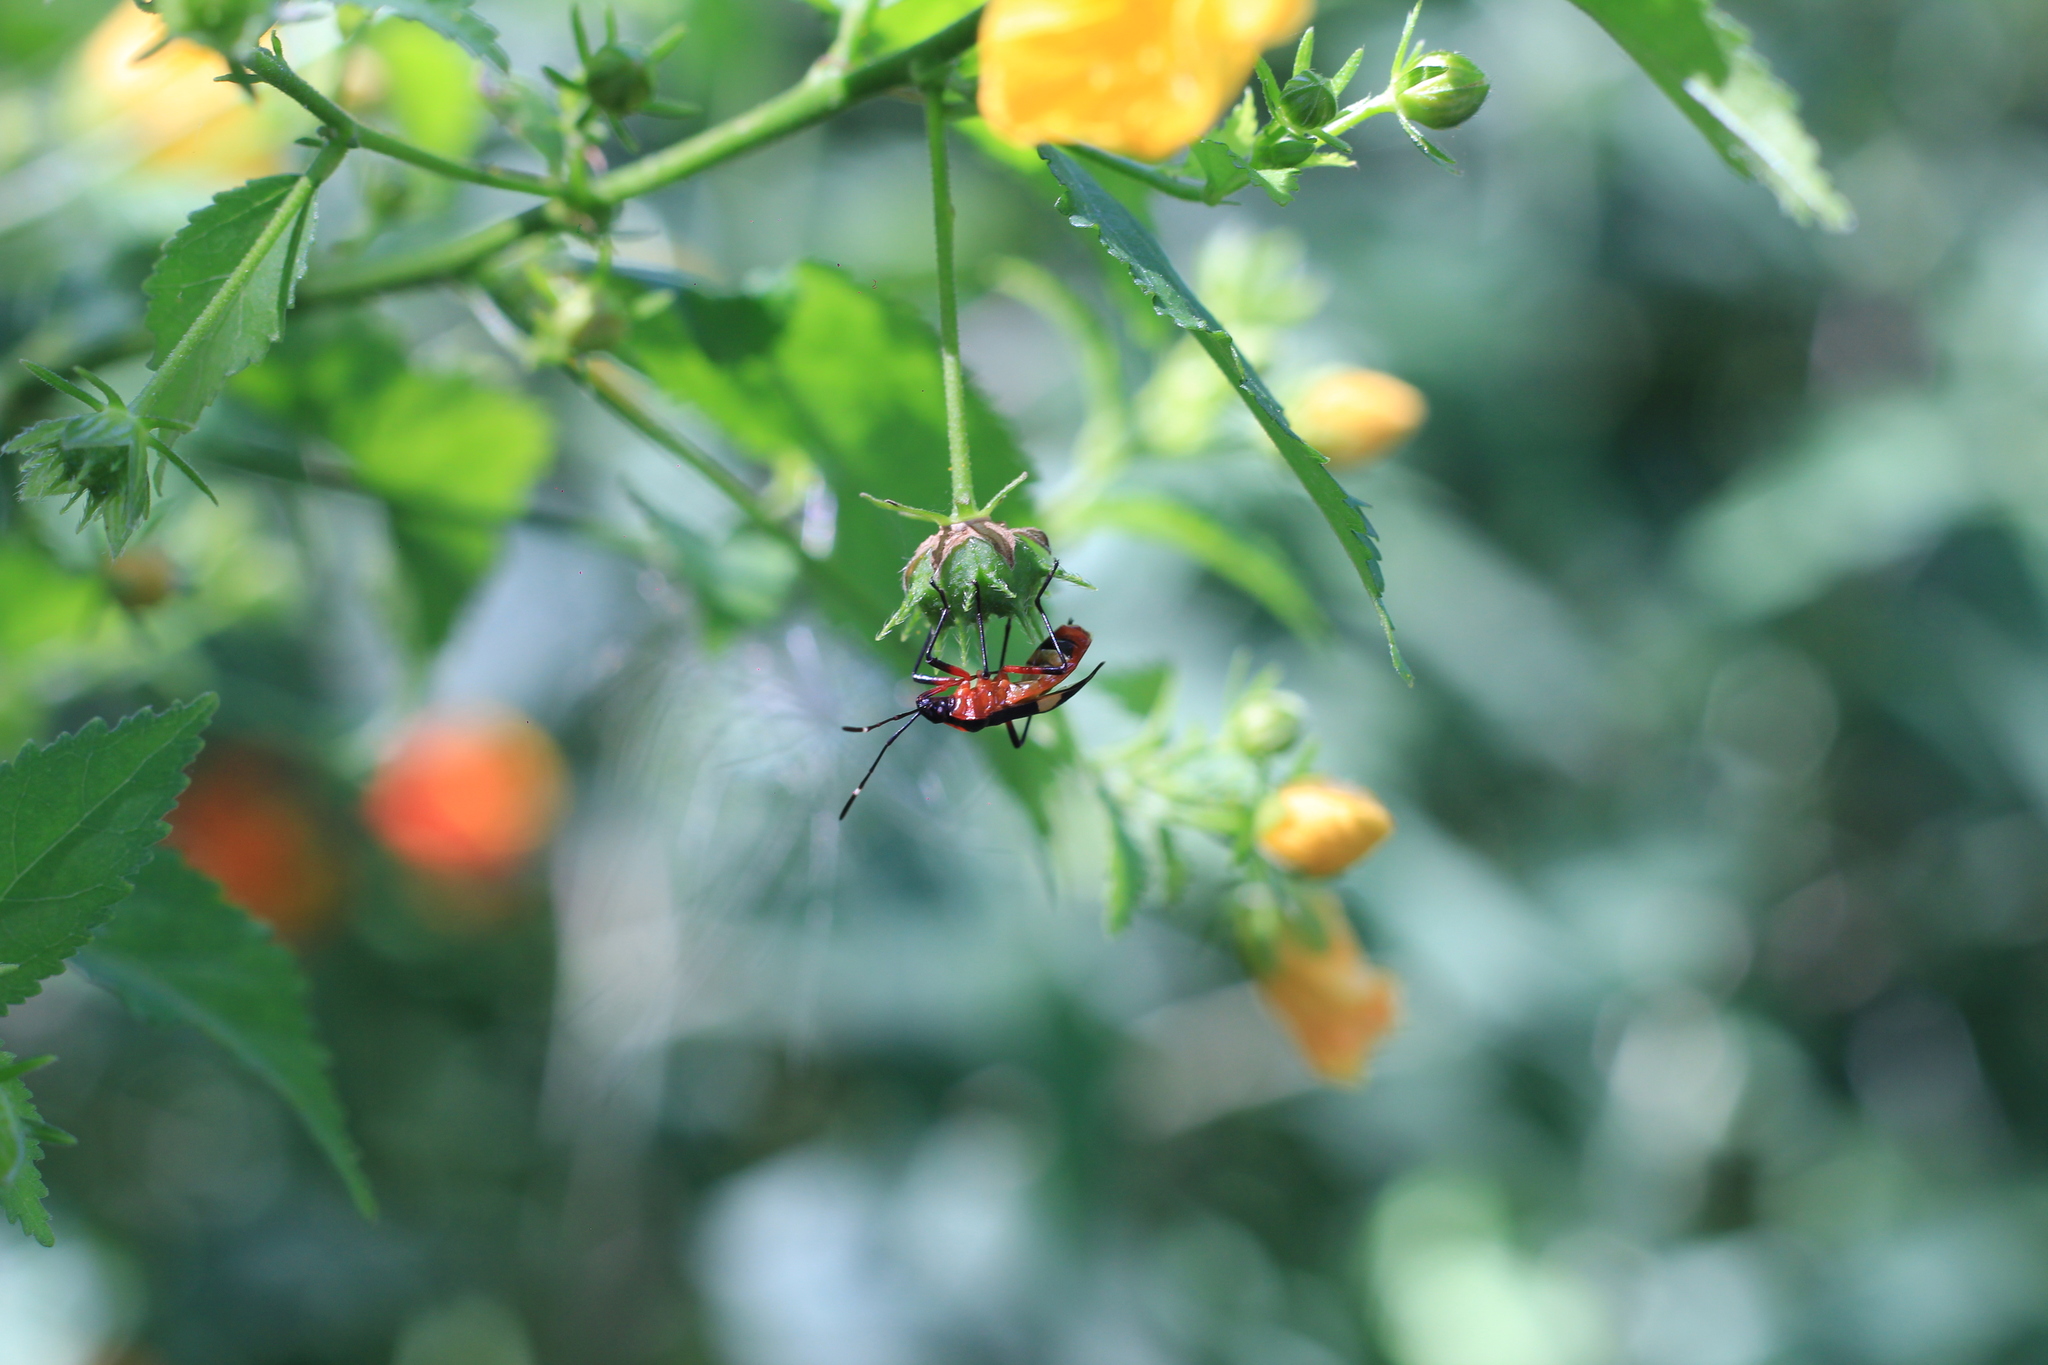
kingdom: Animalia
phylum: Arthropoda
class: Insecta
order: Hemiptera
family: Pyrrhocoridae
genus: Dysdercus
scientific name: Dysdercus albofasciatus
